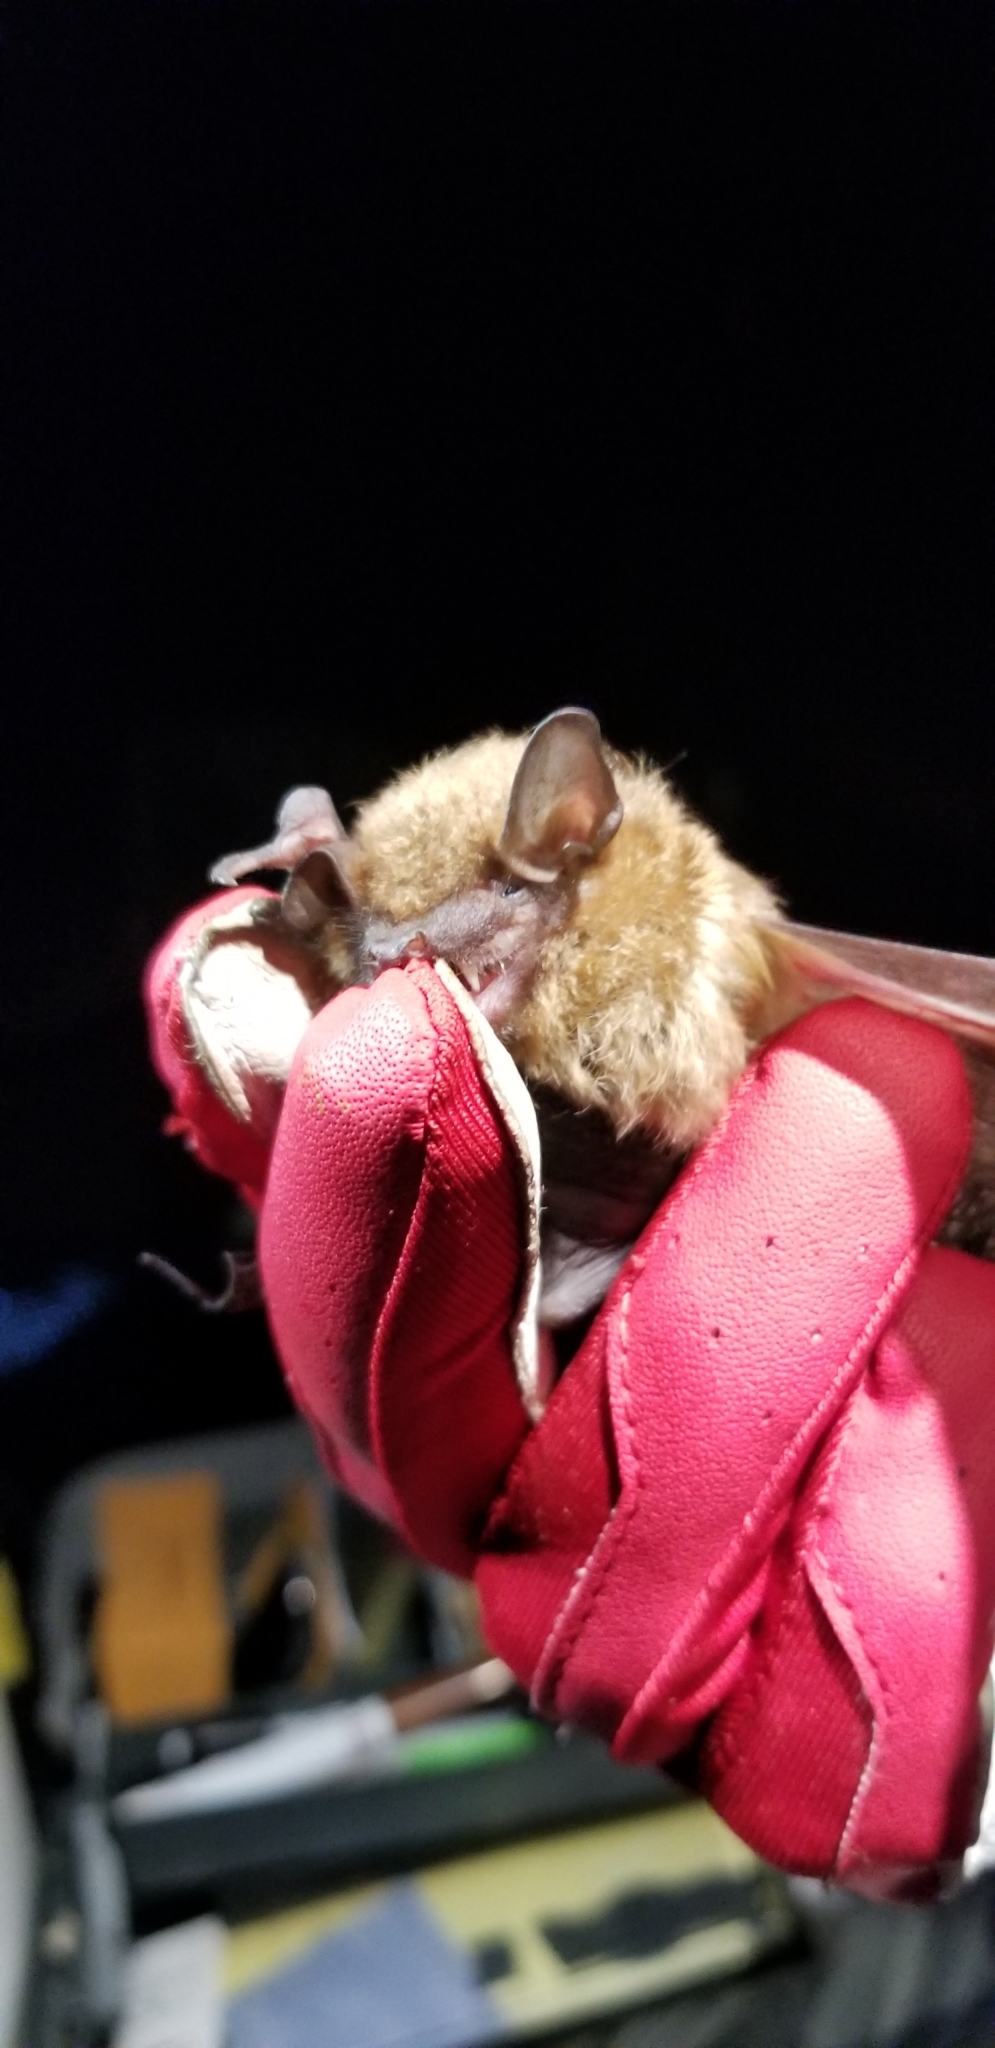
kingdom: Animalia
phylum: Chordata
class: Mammalia
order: Chiroptera
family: Vespertilionidae
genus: Eptesicus
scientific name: Eptesicus fuscus
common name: Big brown bat
